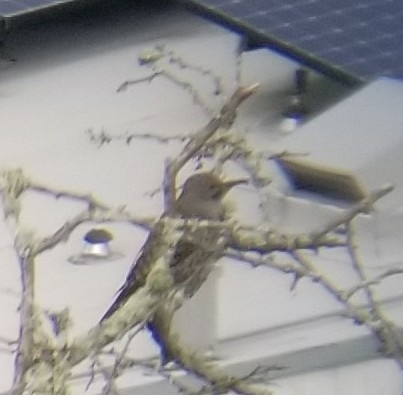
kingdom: Animalia
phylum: Chordata
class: Aves
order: Piciformes
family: Picidae
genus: Colaptes
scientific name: Colaptes auratus
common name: Northern flicker
